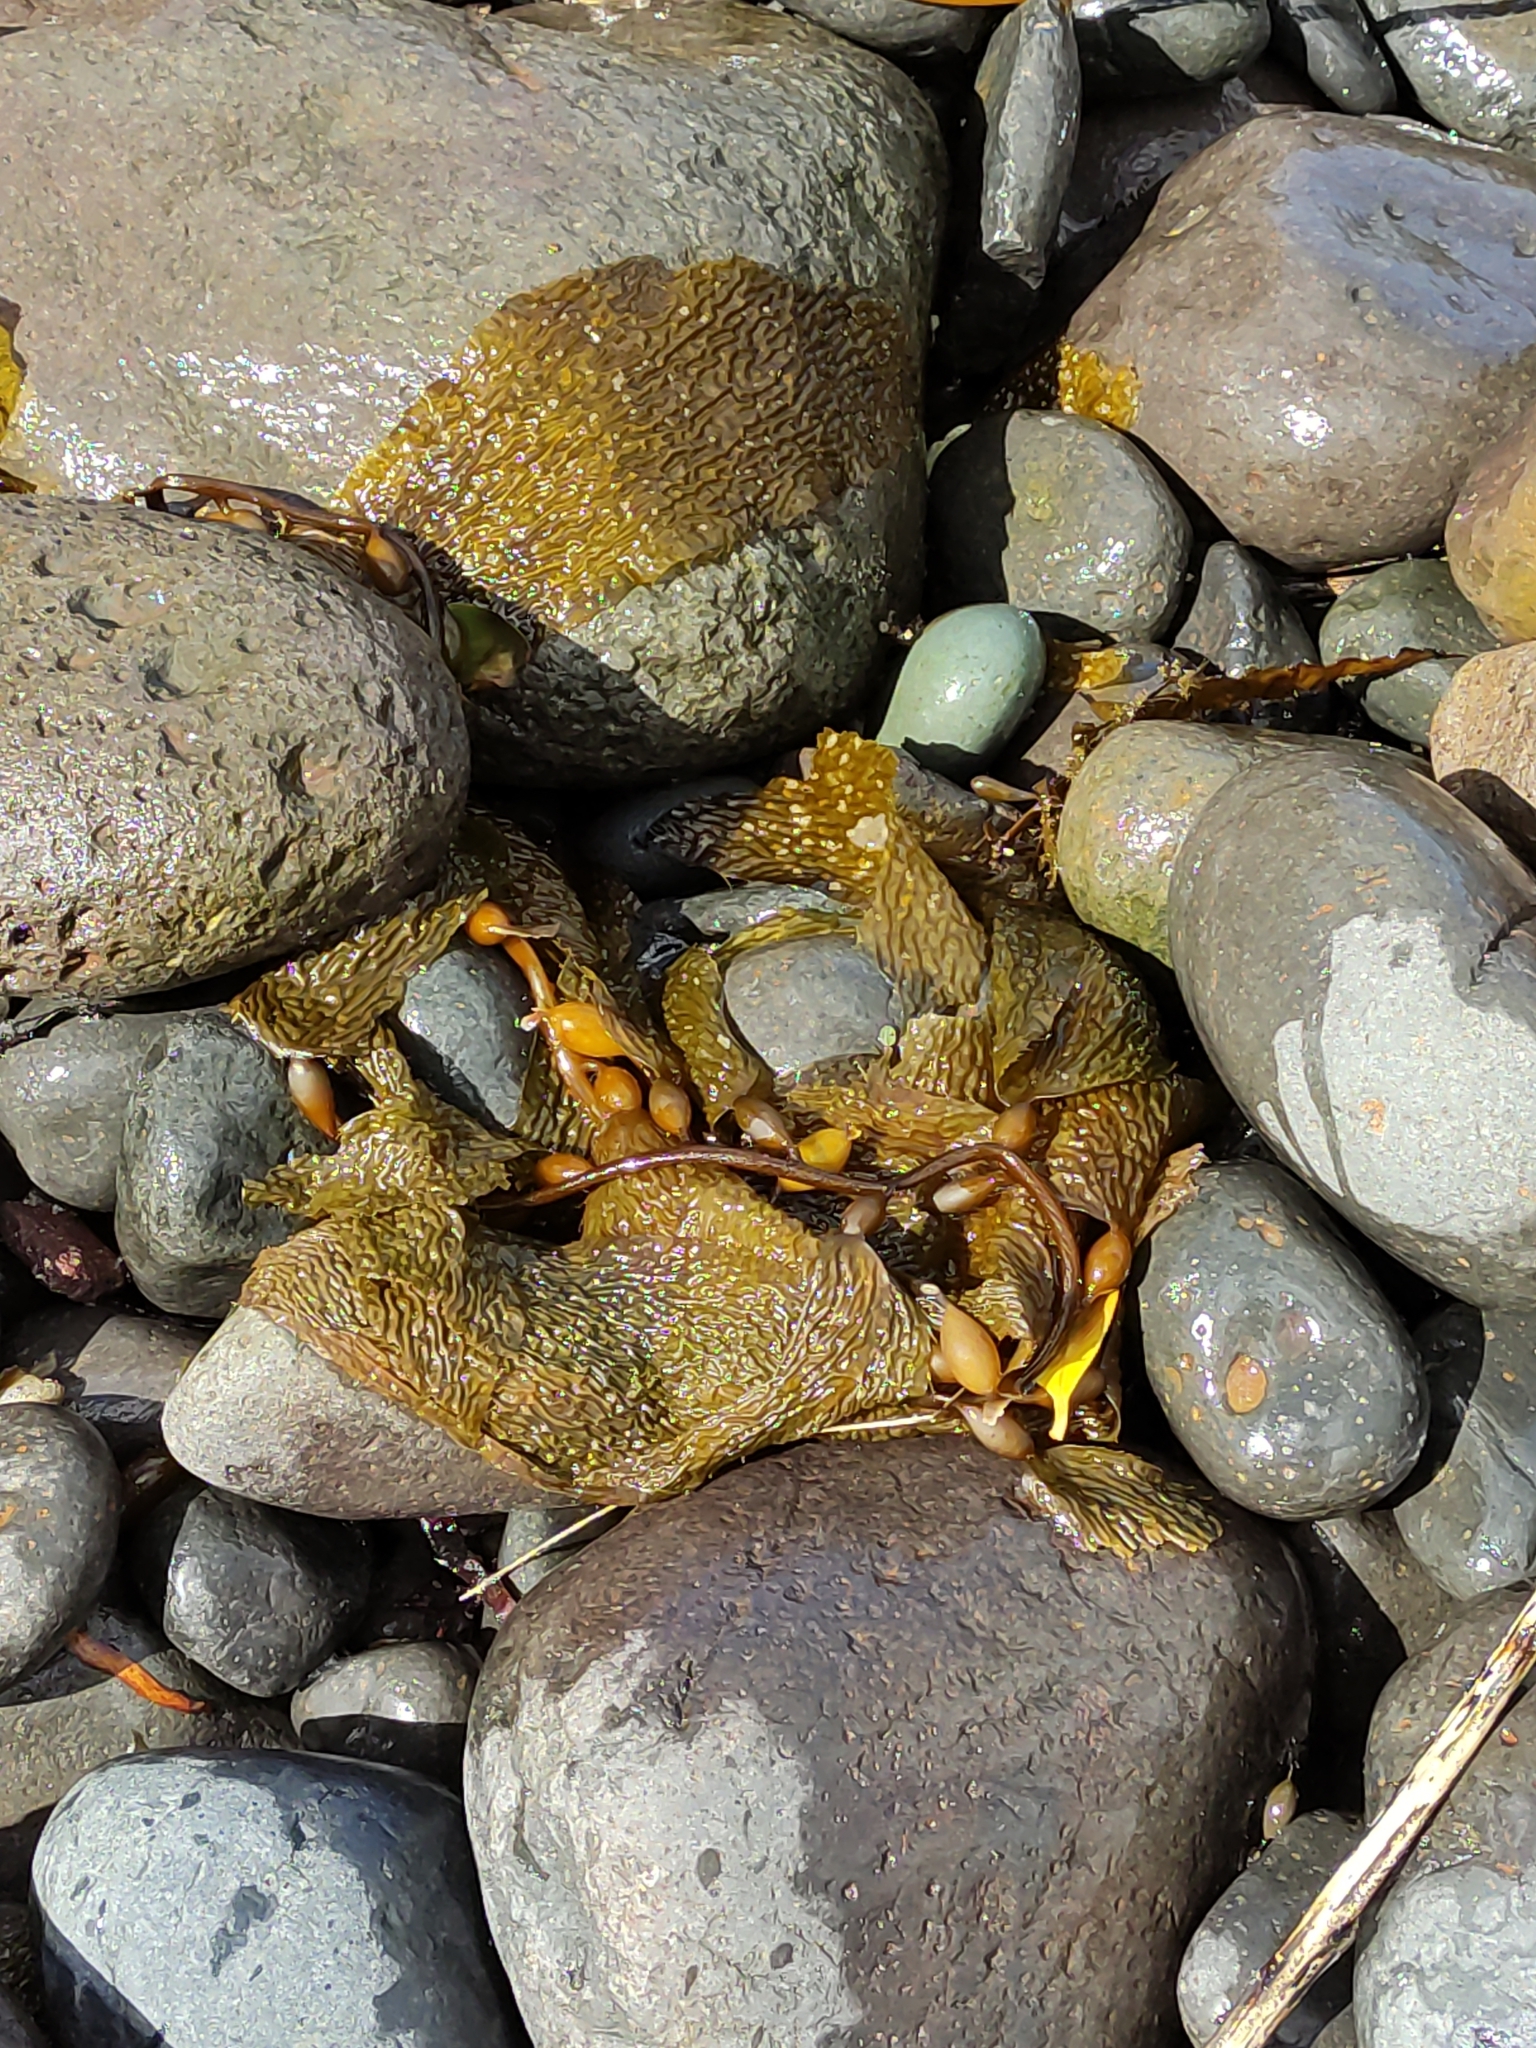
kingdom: Chromista
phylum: Ochrophyta
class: Phaeophyceae
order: Laminariales
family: Laminariaceae
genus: Macrocystis
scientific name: Macrocystis pyrifera
